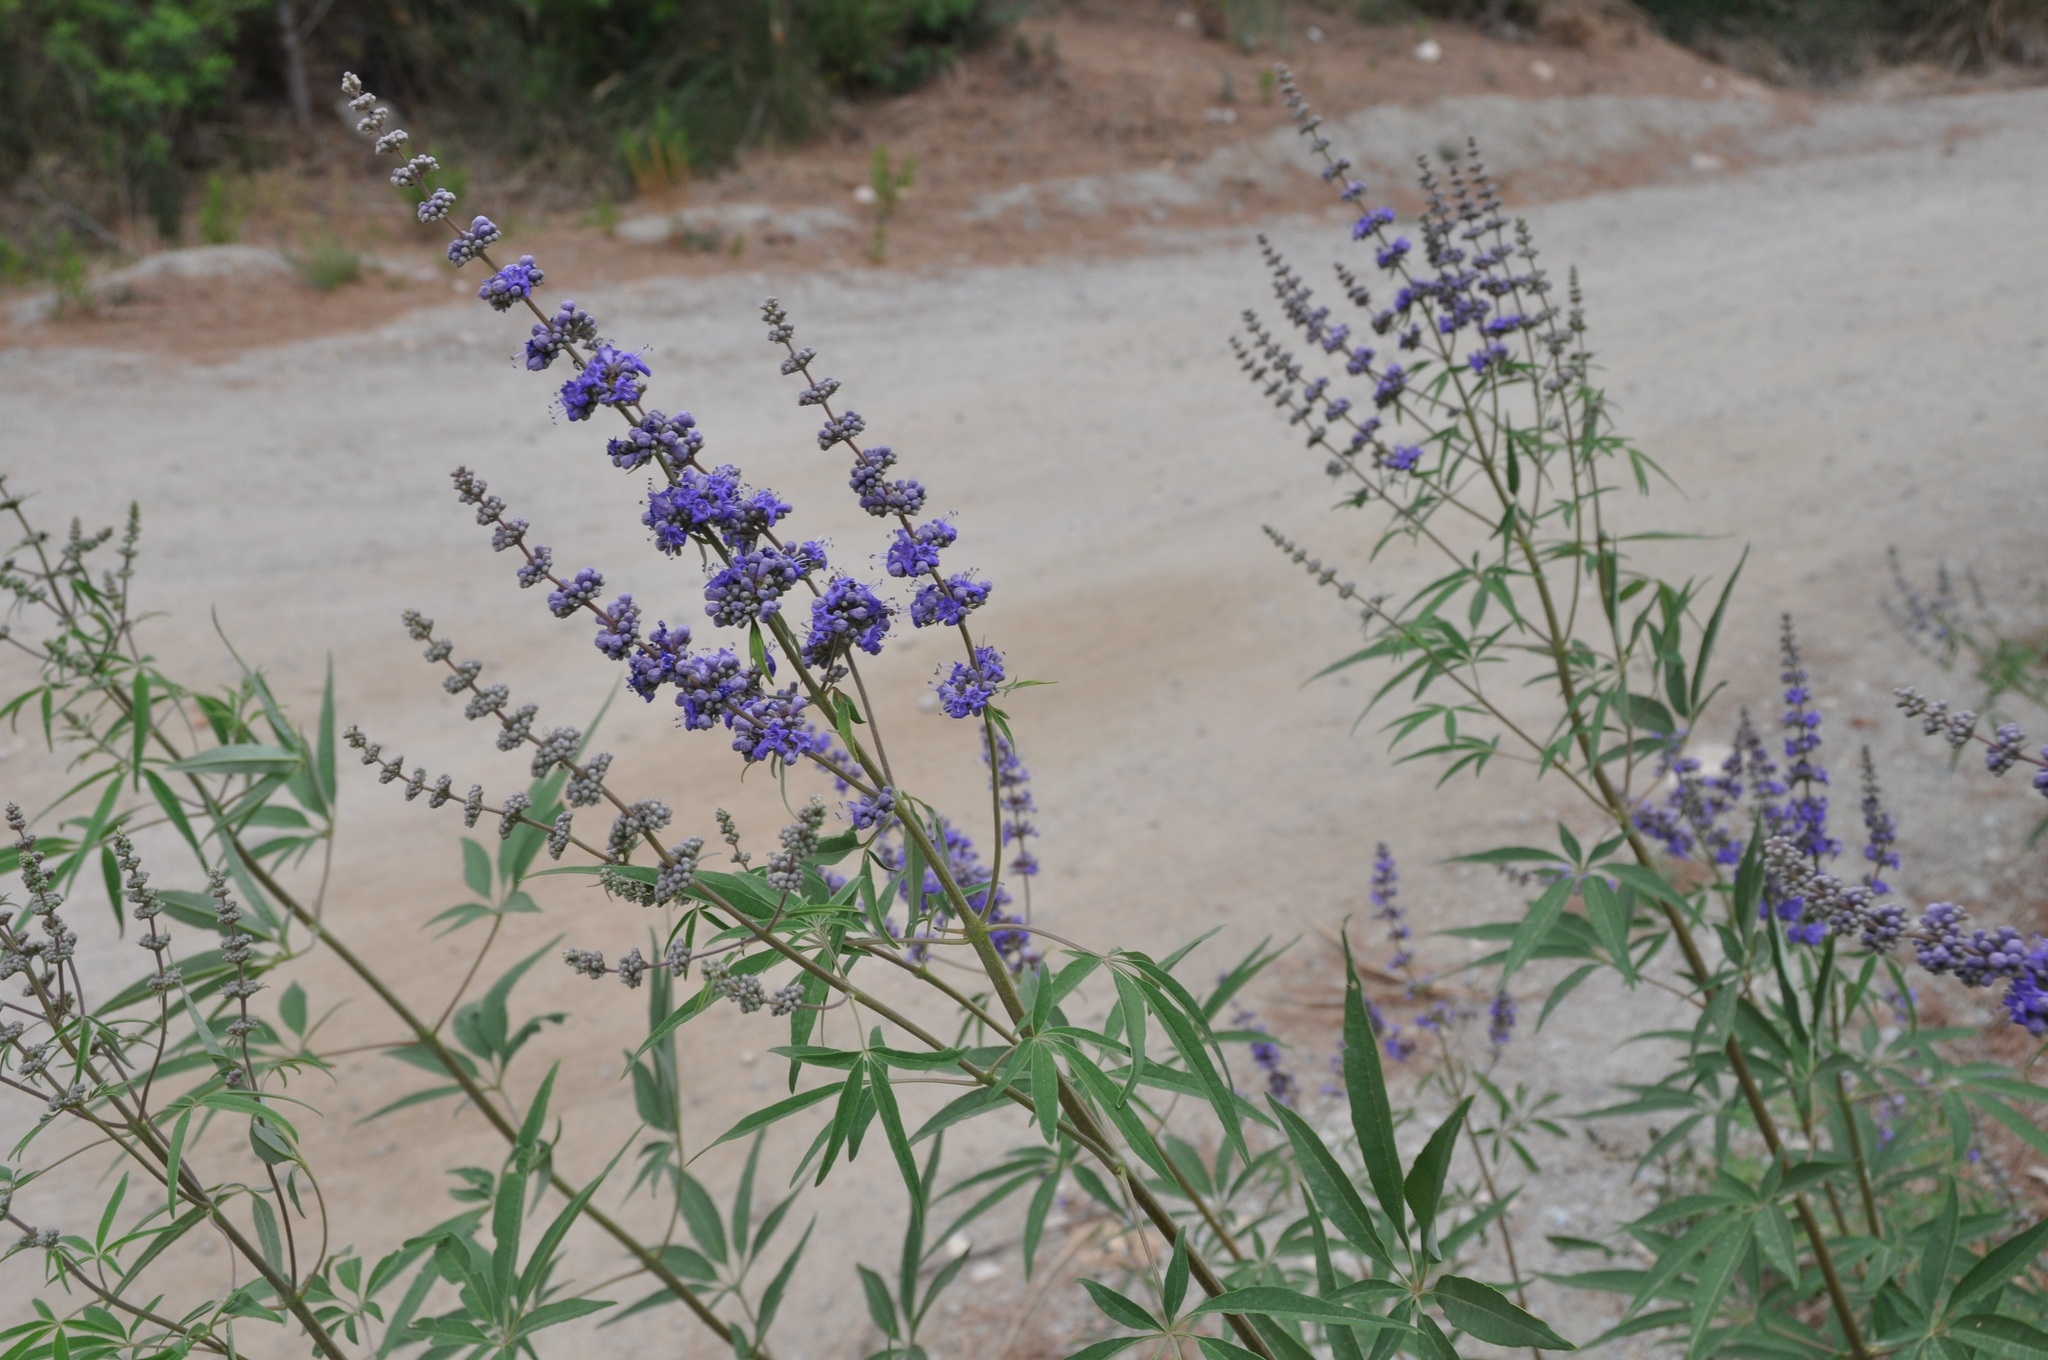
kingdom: Plantae
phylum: Tracheophyta
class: Magnoliopsida
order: Lamiales
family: Lamiaceae
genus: Vitex
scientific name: Vitex agnus-castus
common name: Chasteberry
